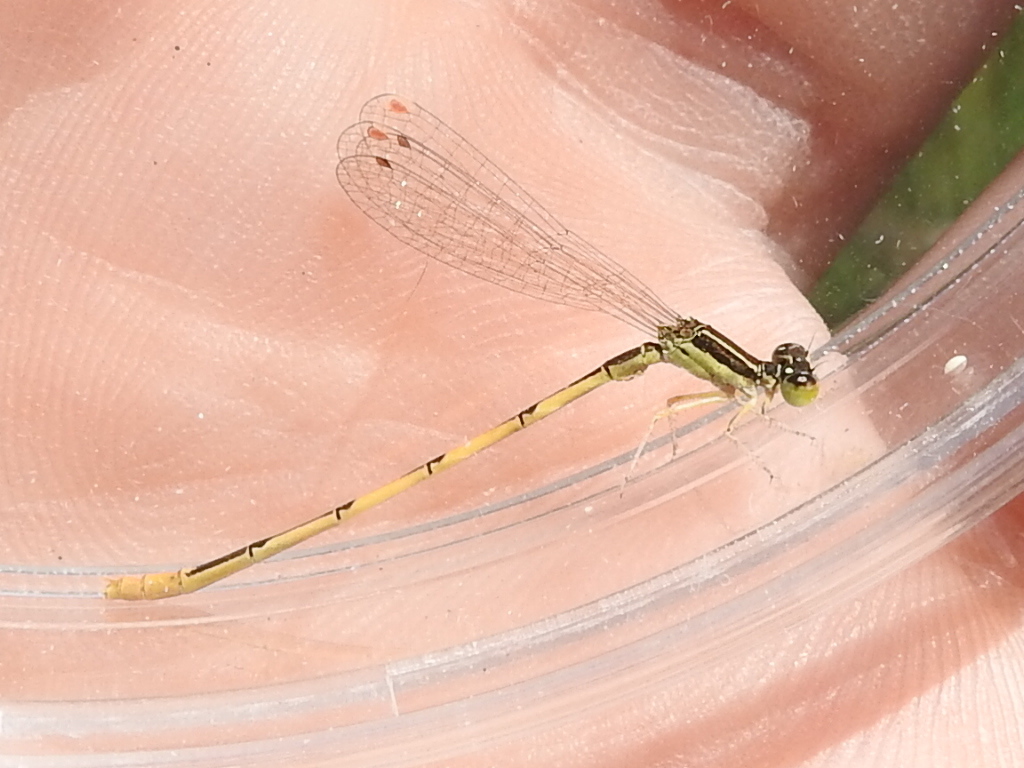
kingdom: Animalia
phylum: Arthropoda
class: Insecta
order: Odonata
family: Coenagrionidae
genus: Ischnura
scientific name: Ischnura hastata
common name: Citrine forktail
